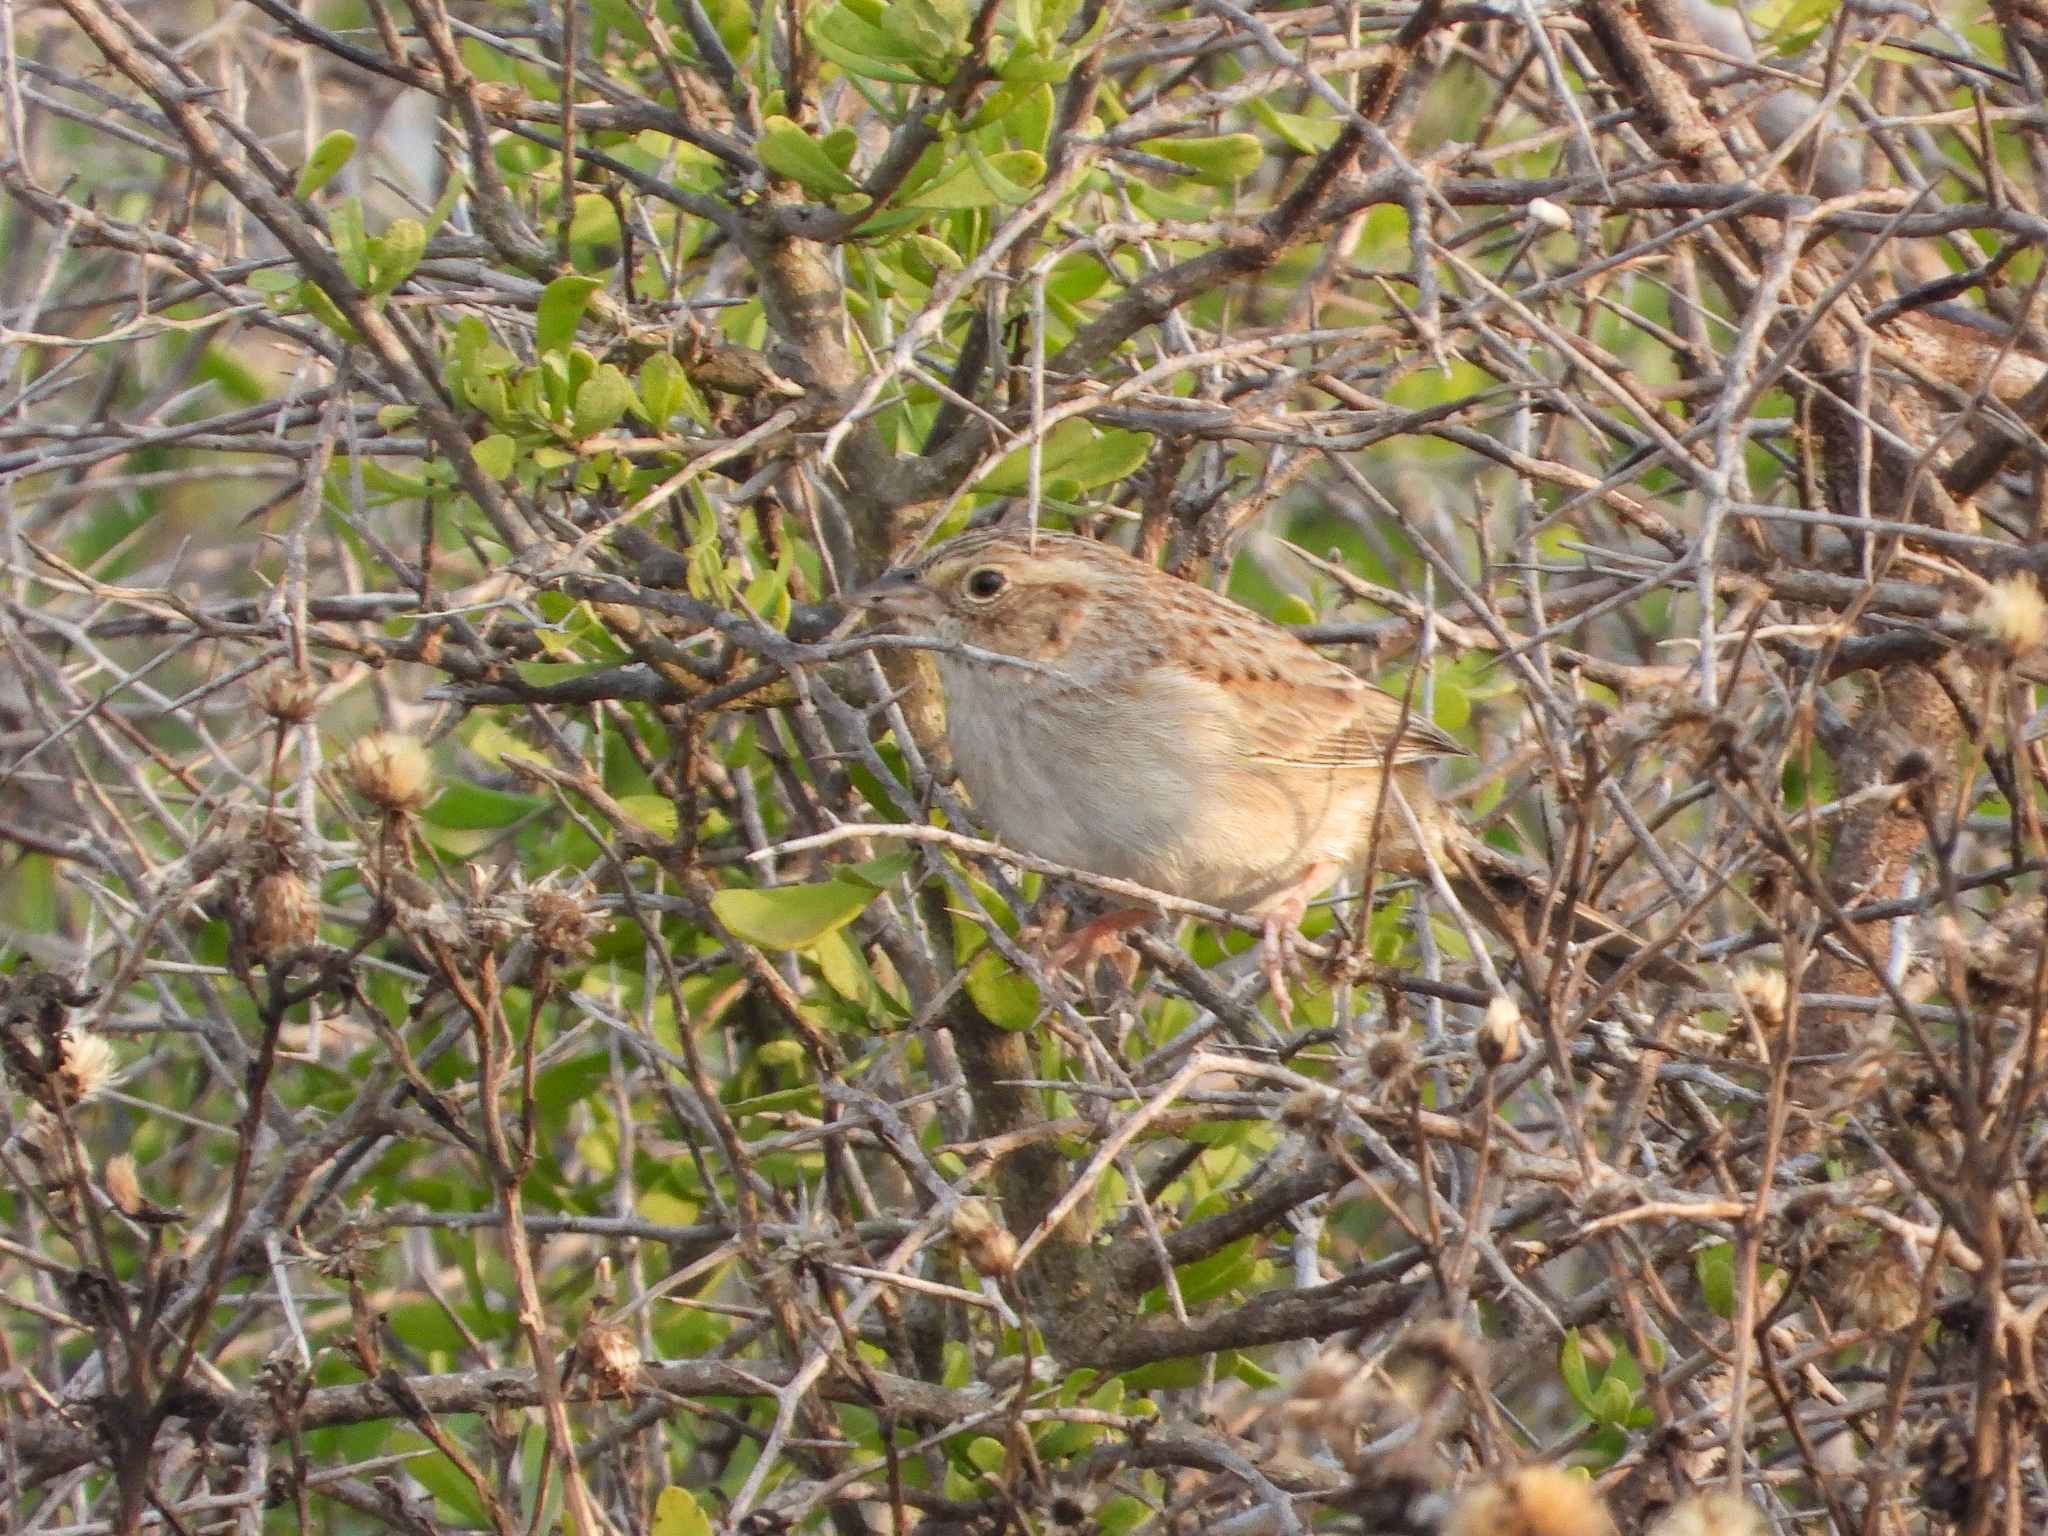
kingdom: Animalia
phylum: Chordata
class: Aves
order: Passeriformes
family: Passerellidae
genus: Peucaea
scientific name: Peucaea cassinii
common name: Cassin's sparrow
